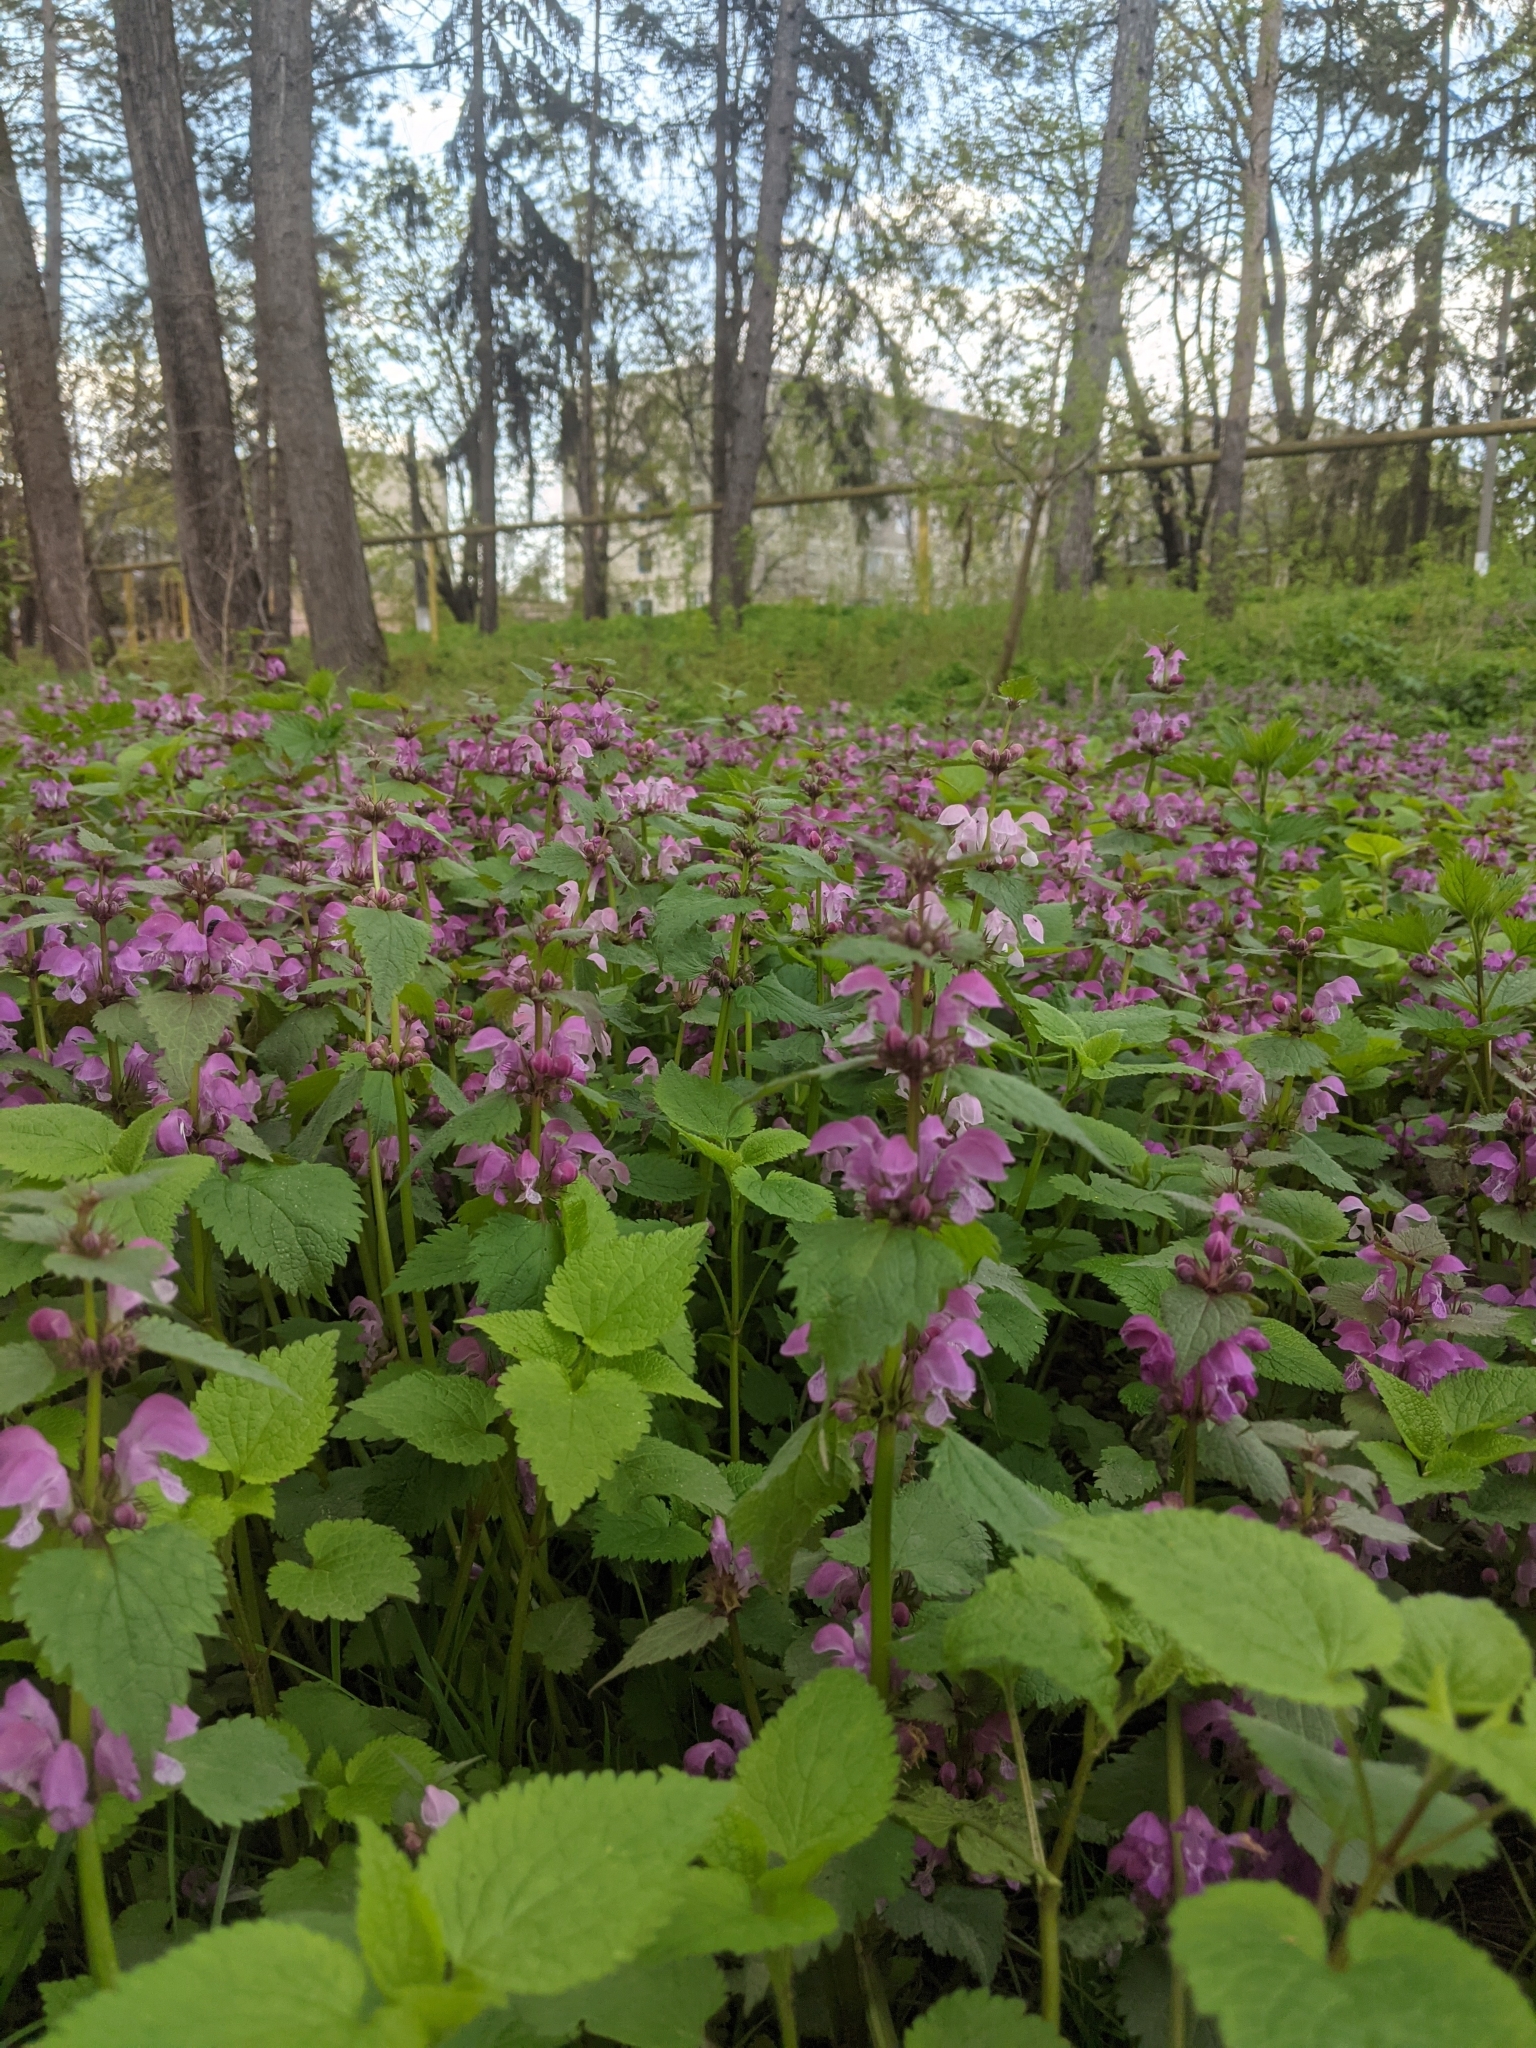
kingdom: Plantae
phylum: Tracheophyta
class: Magnoliopsida
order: Lamiales
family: Lamiaceae
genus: Lamium
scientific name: Lamium maculatum
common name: Spotted dead-nettle
